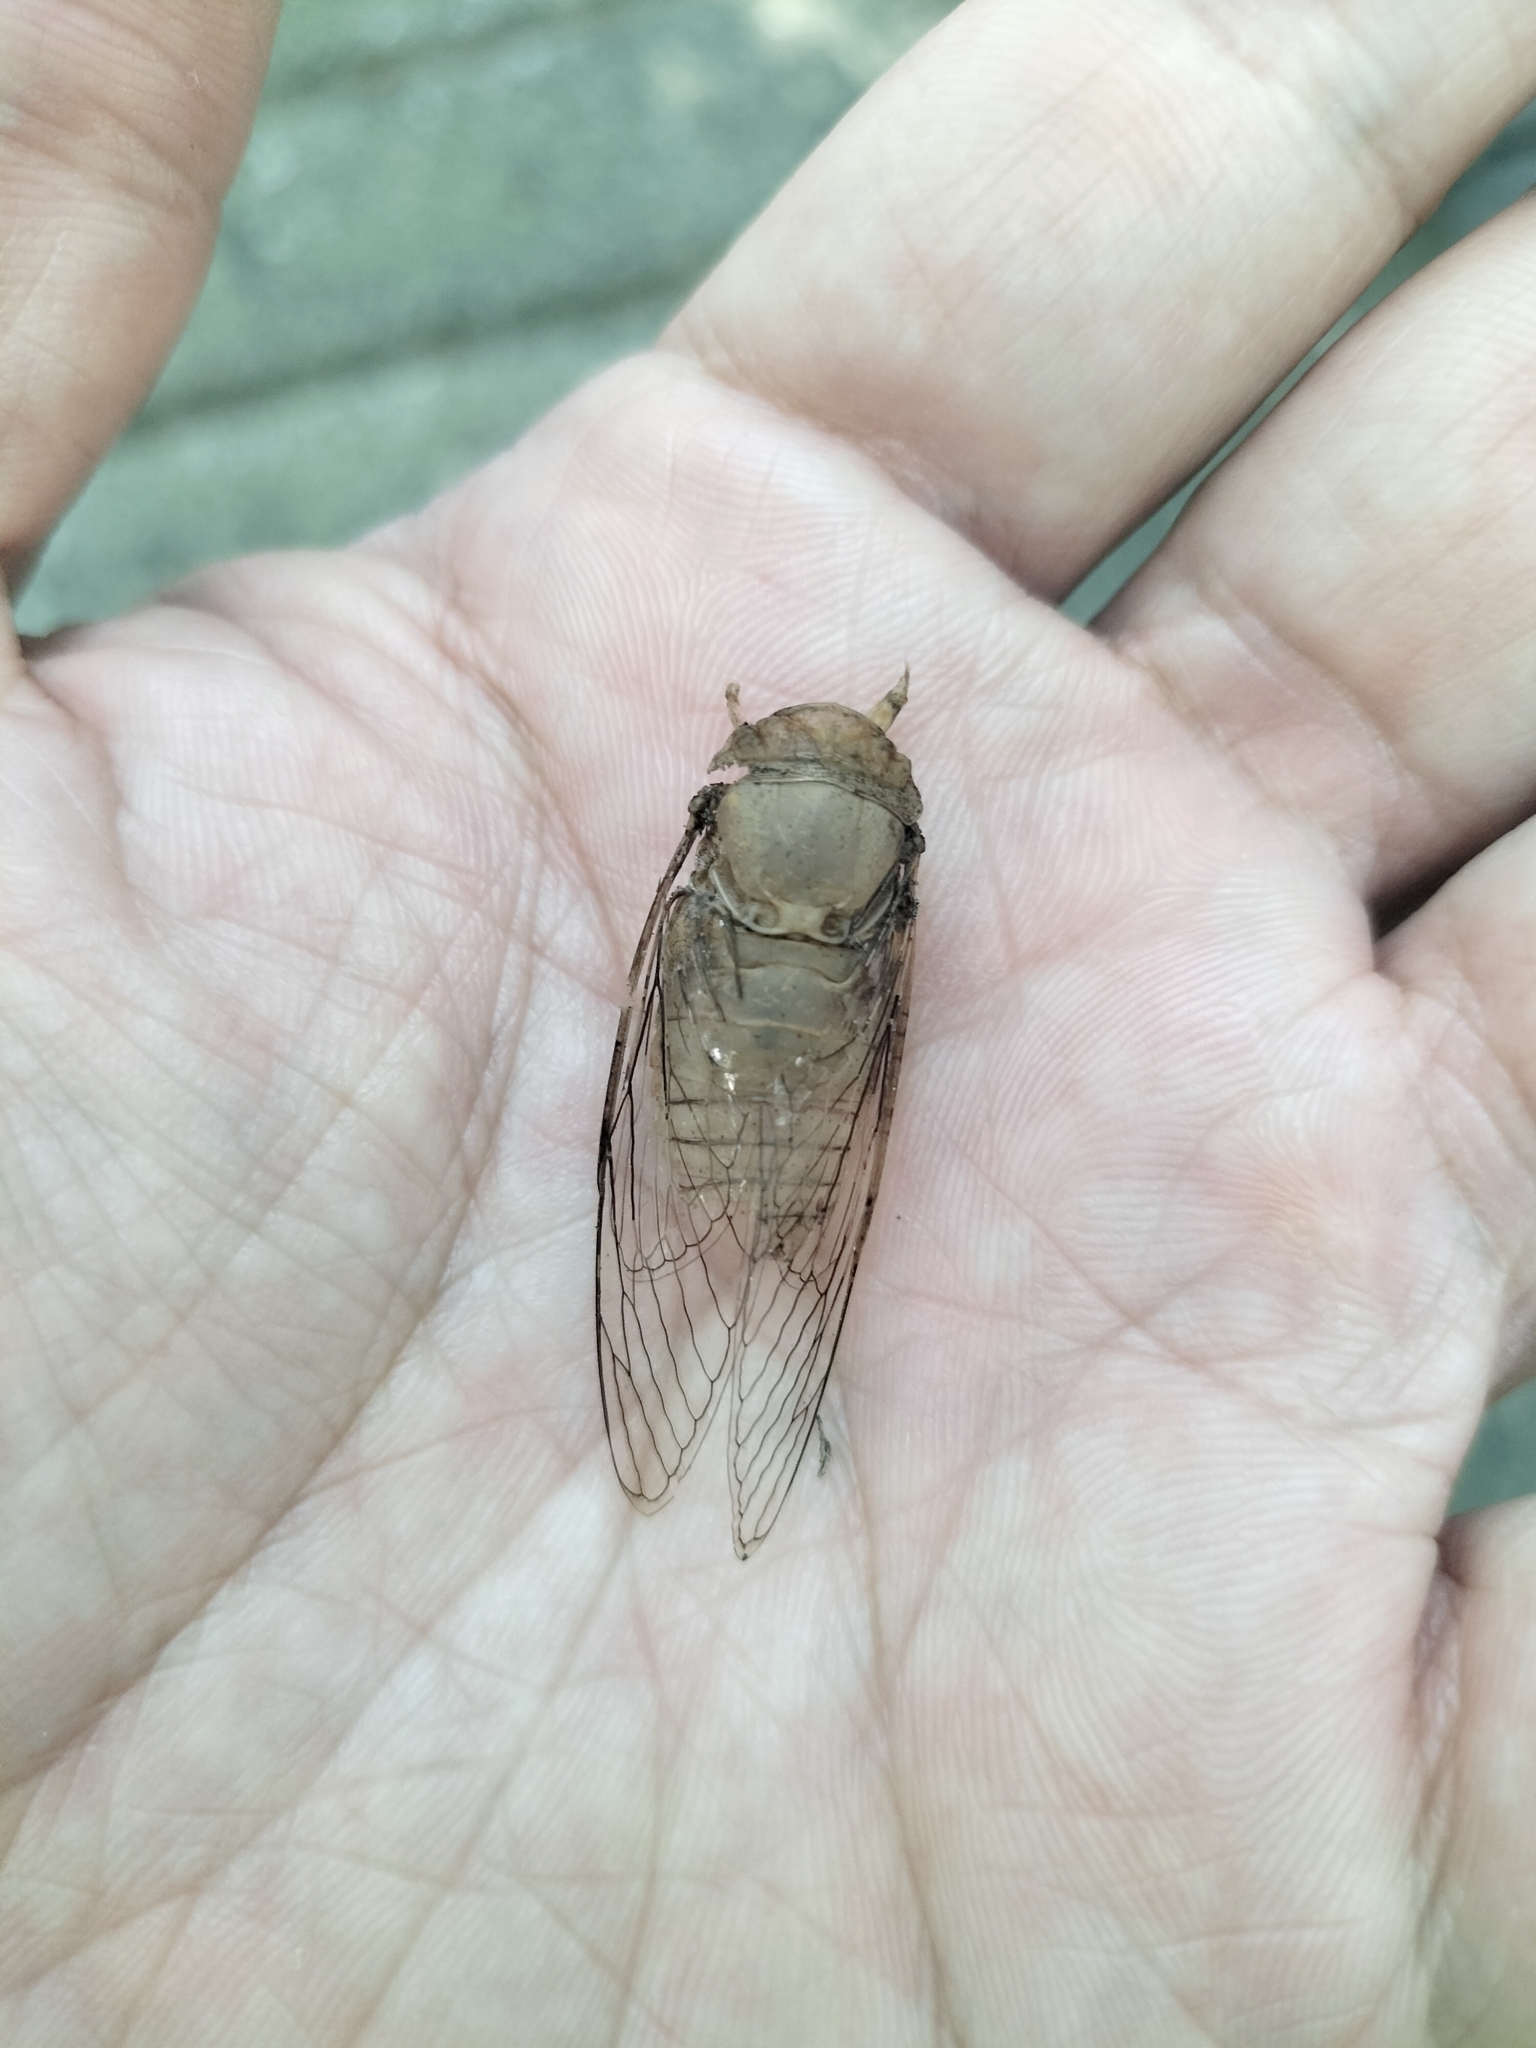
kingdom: Animalia
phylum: Arthropoda
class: Insecta
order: Hemiptera
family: Cicadidae
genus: Chremistica
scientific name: Chremistica ochracea
